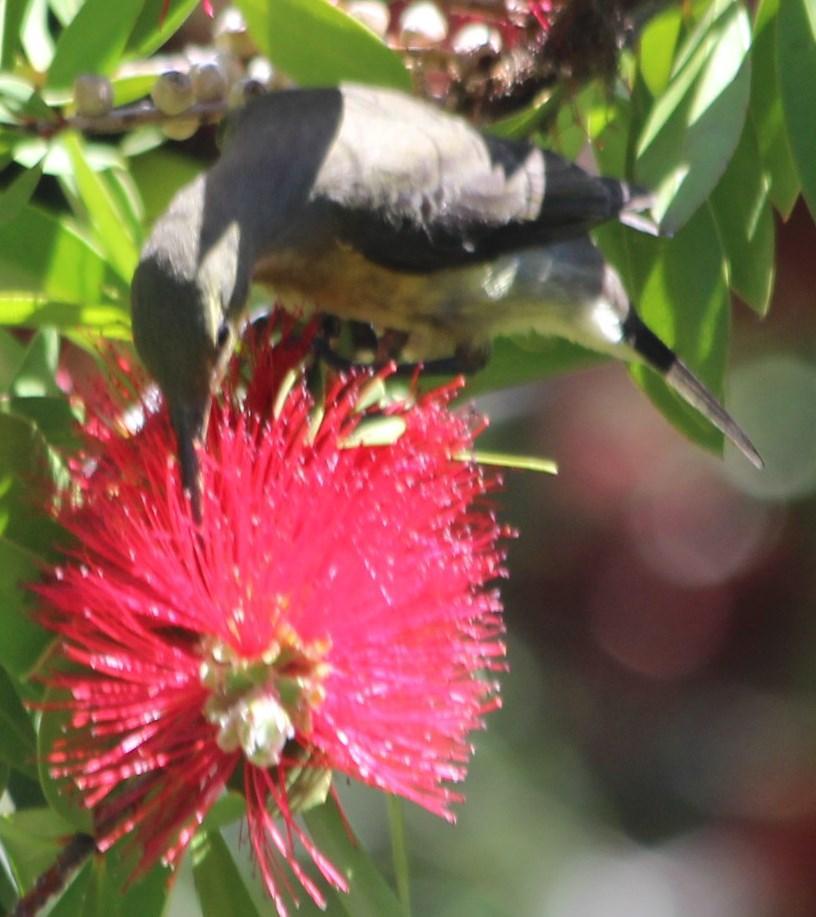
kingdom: Animalia
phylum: Chordata
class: Aves
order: Passeriformes
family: Nectariniidae
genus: Nectarinia
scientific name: Nectarinia famosa
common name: Malachite sunbird
